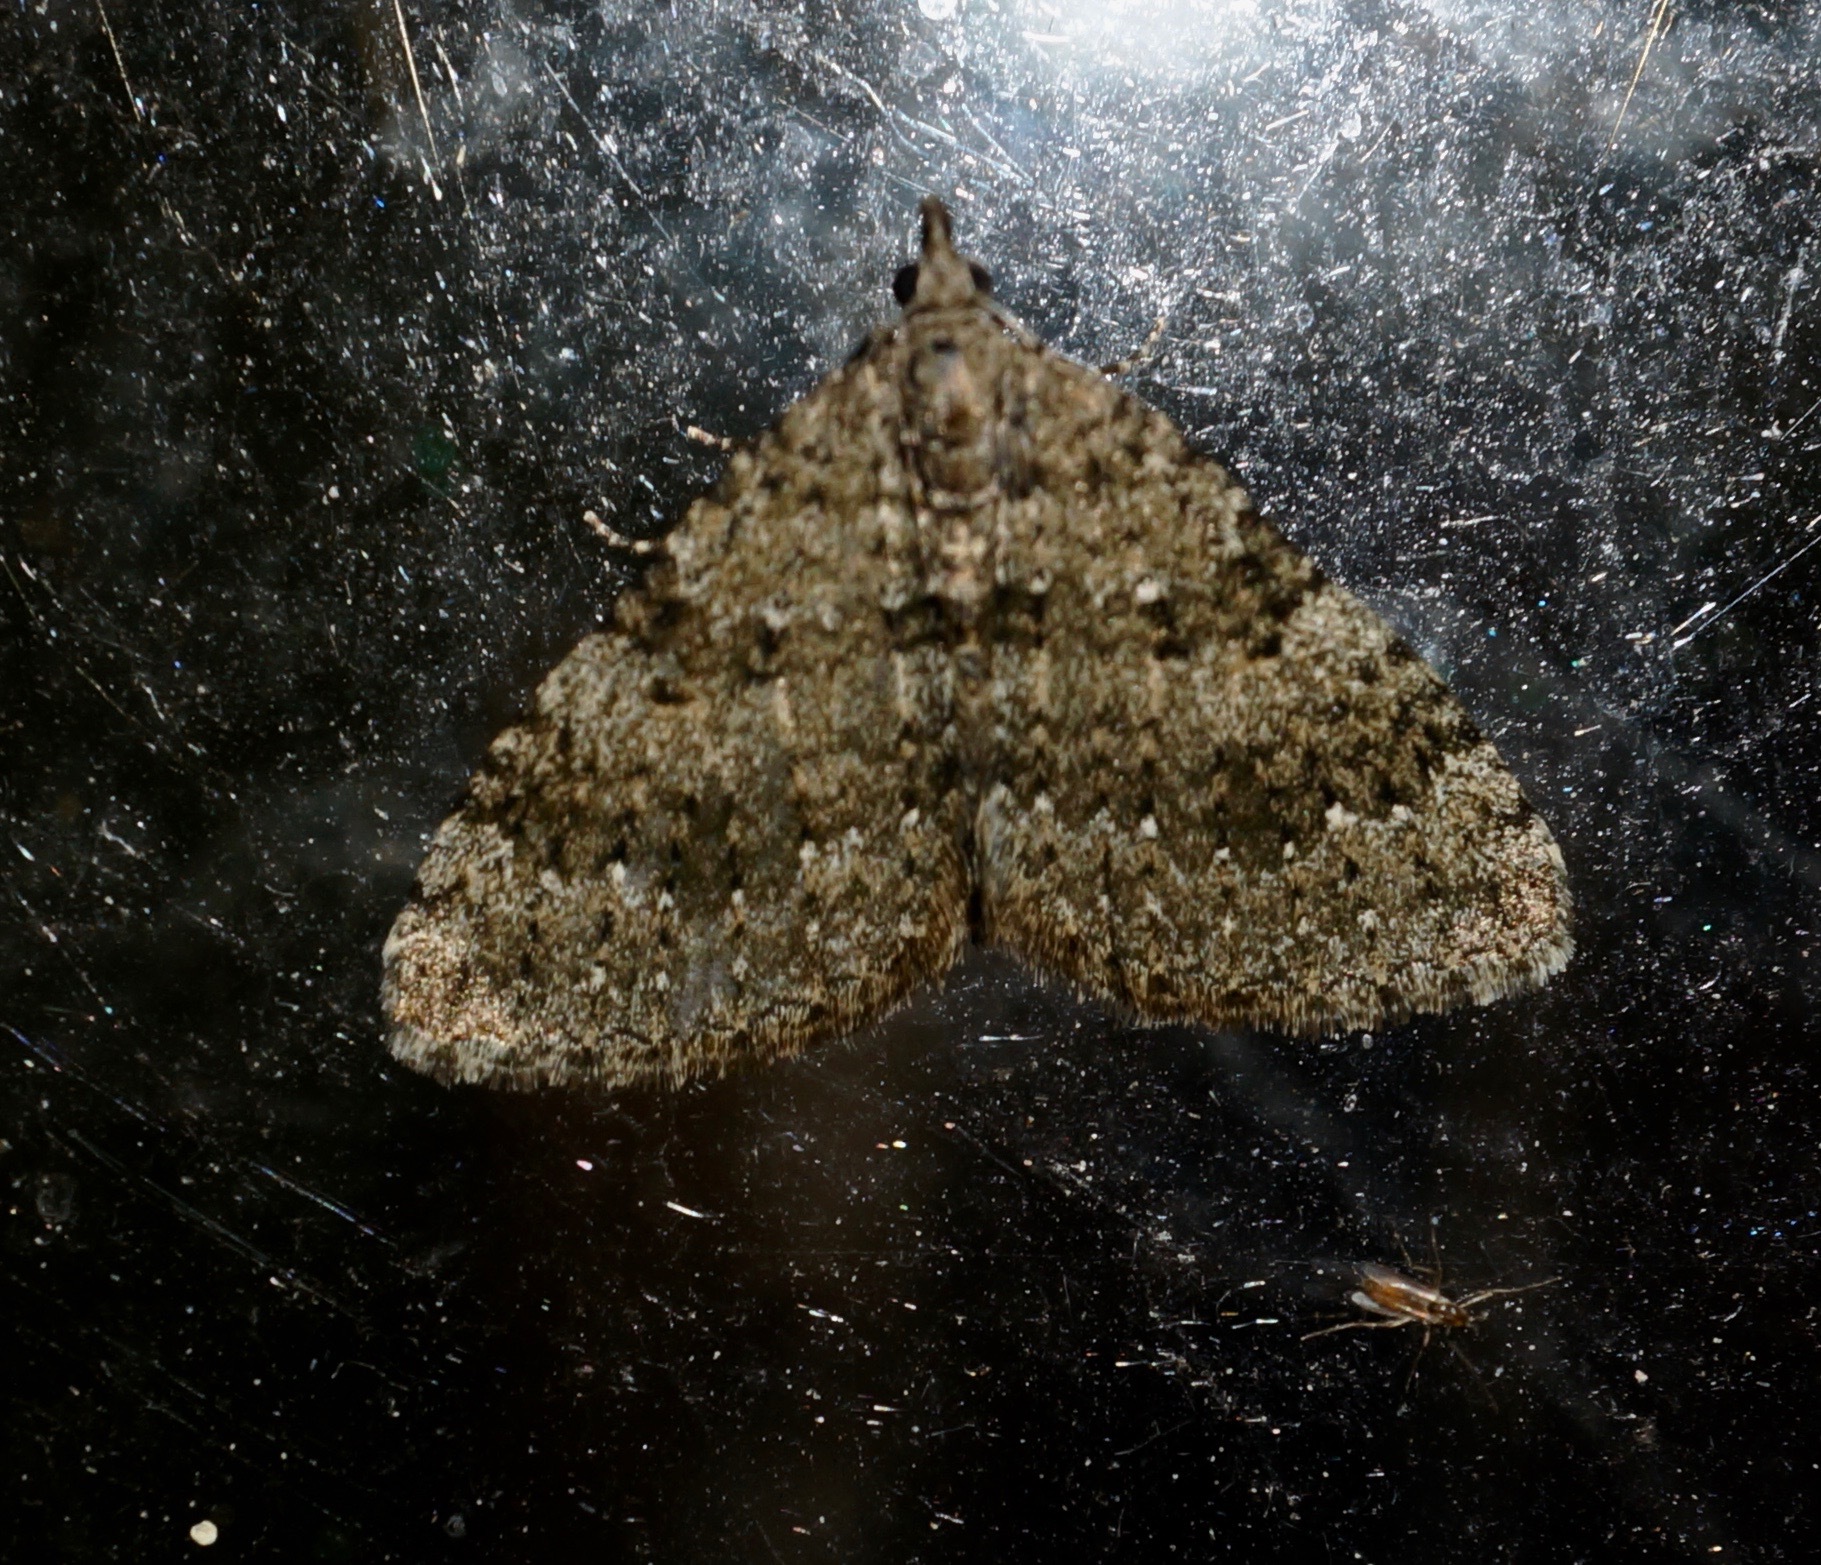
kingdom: Animalia
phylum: Arthropoda
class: Insecta
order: Lepidoptera
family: Geometridae
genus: Helastia
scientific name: Helastia semisignata
